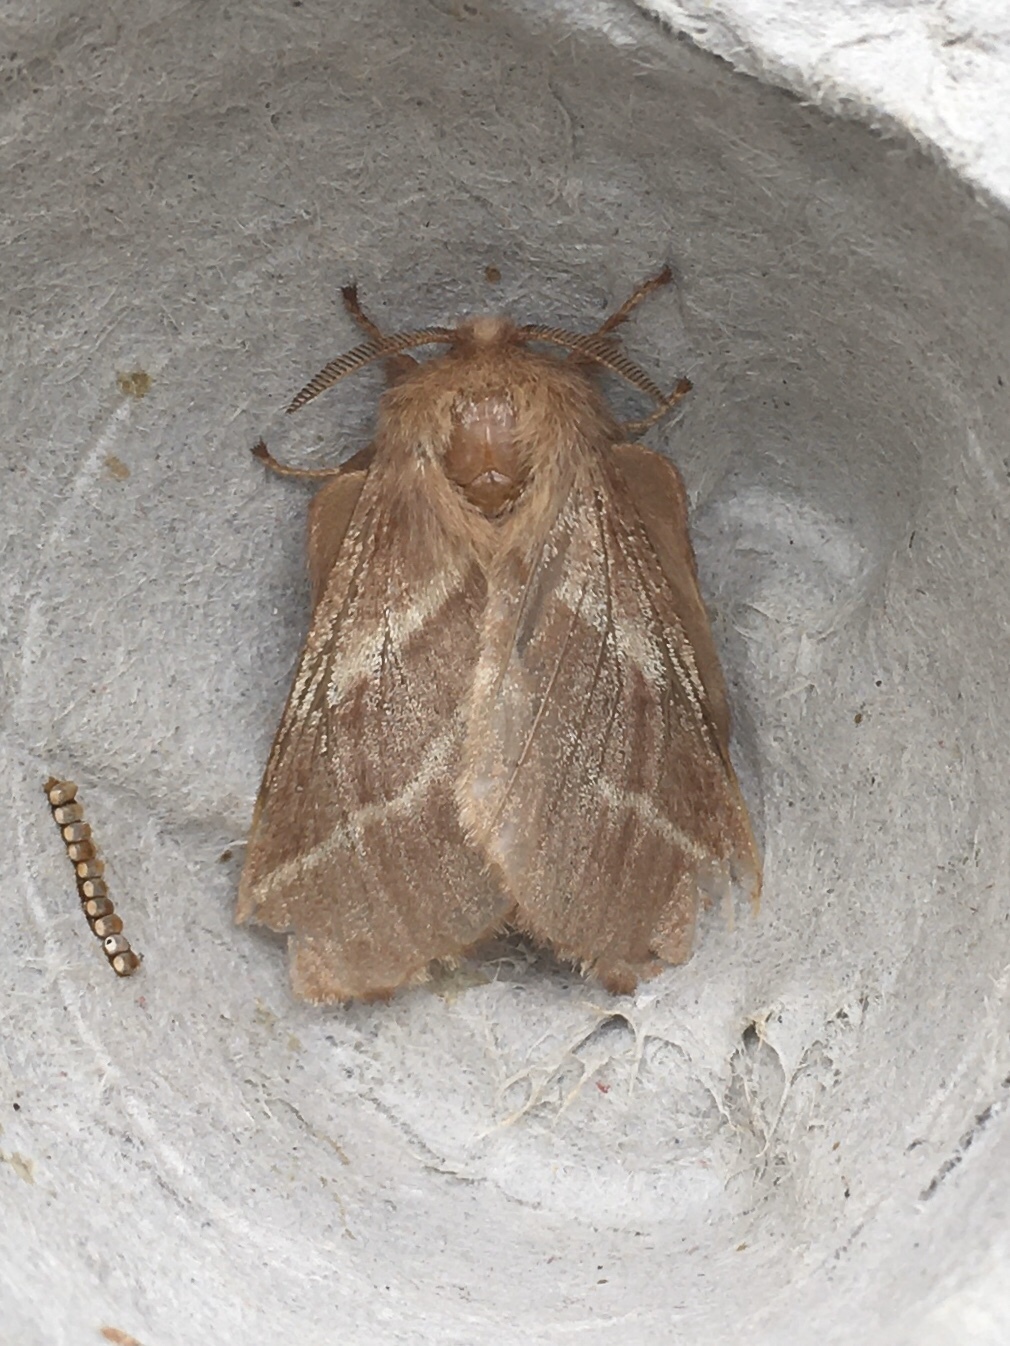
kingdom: Animalia
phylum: Arthropoda
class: Insecta
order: Lepidoptera
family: Lasiocampidae
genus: Malacosoma
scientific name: Malacosoma americana
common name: Eastern tent caterpillar moth
